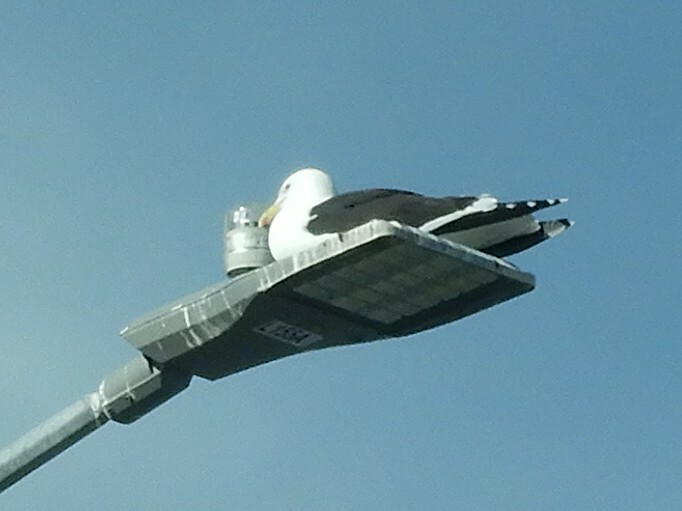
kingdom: Animalia
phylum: Chordata
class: Aves
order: Charadriiformes
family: Laridae
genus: Larus
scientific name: Larus dominicanus
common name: Kelp gull
